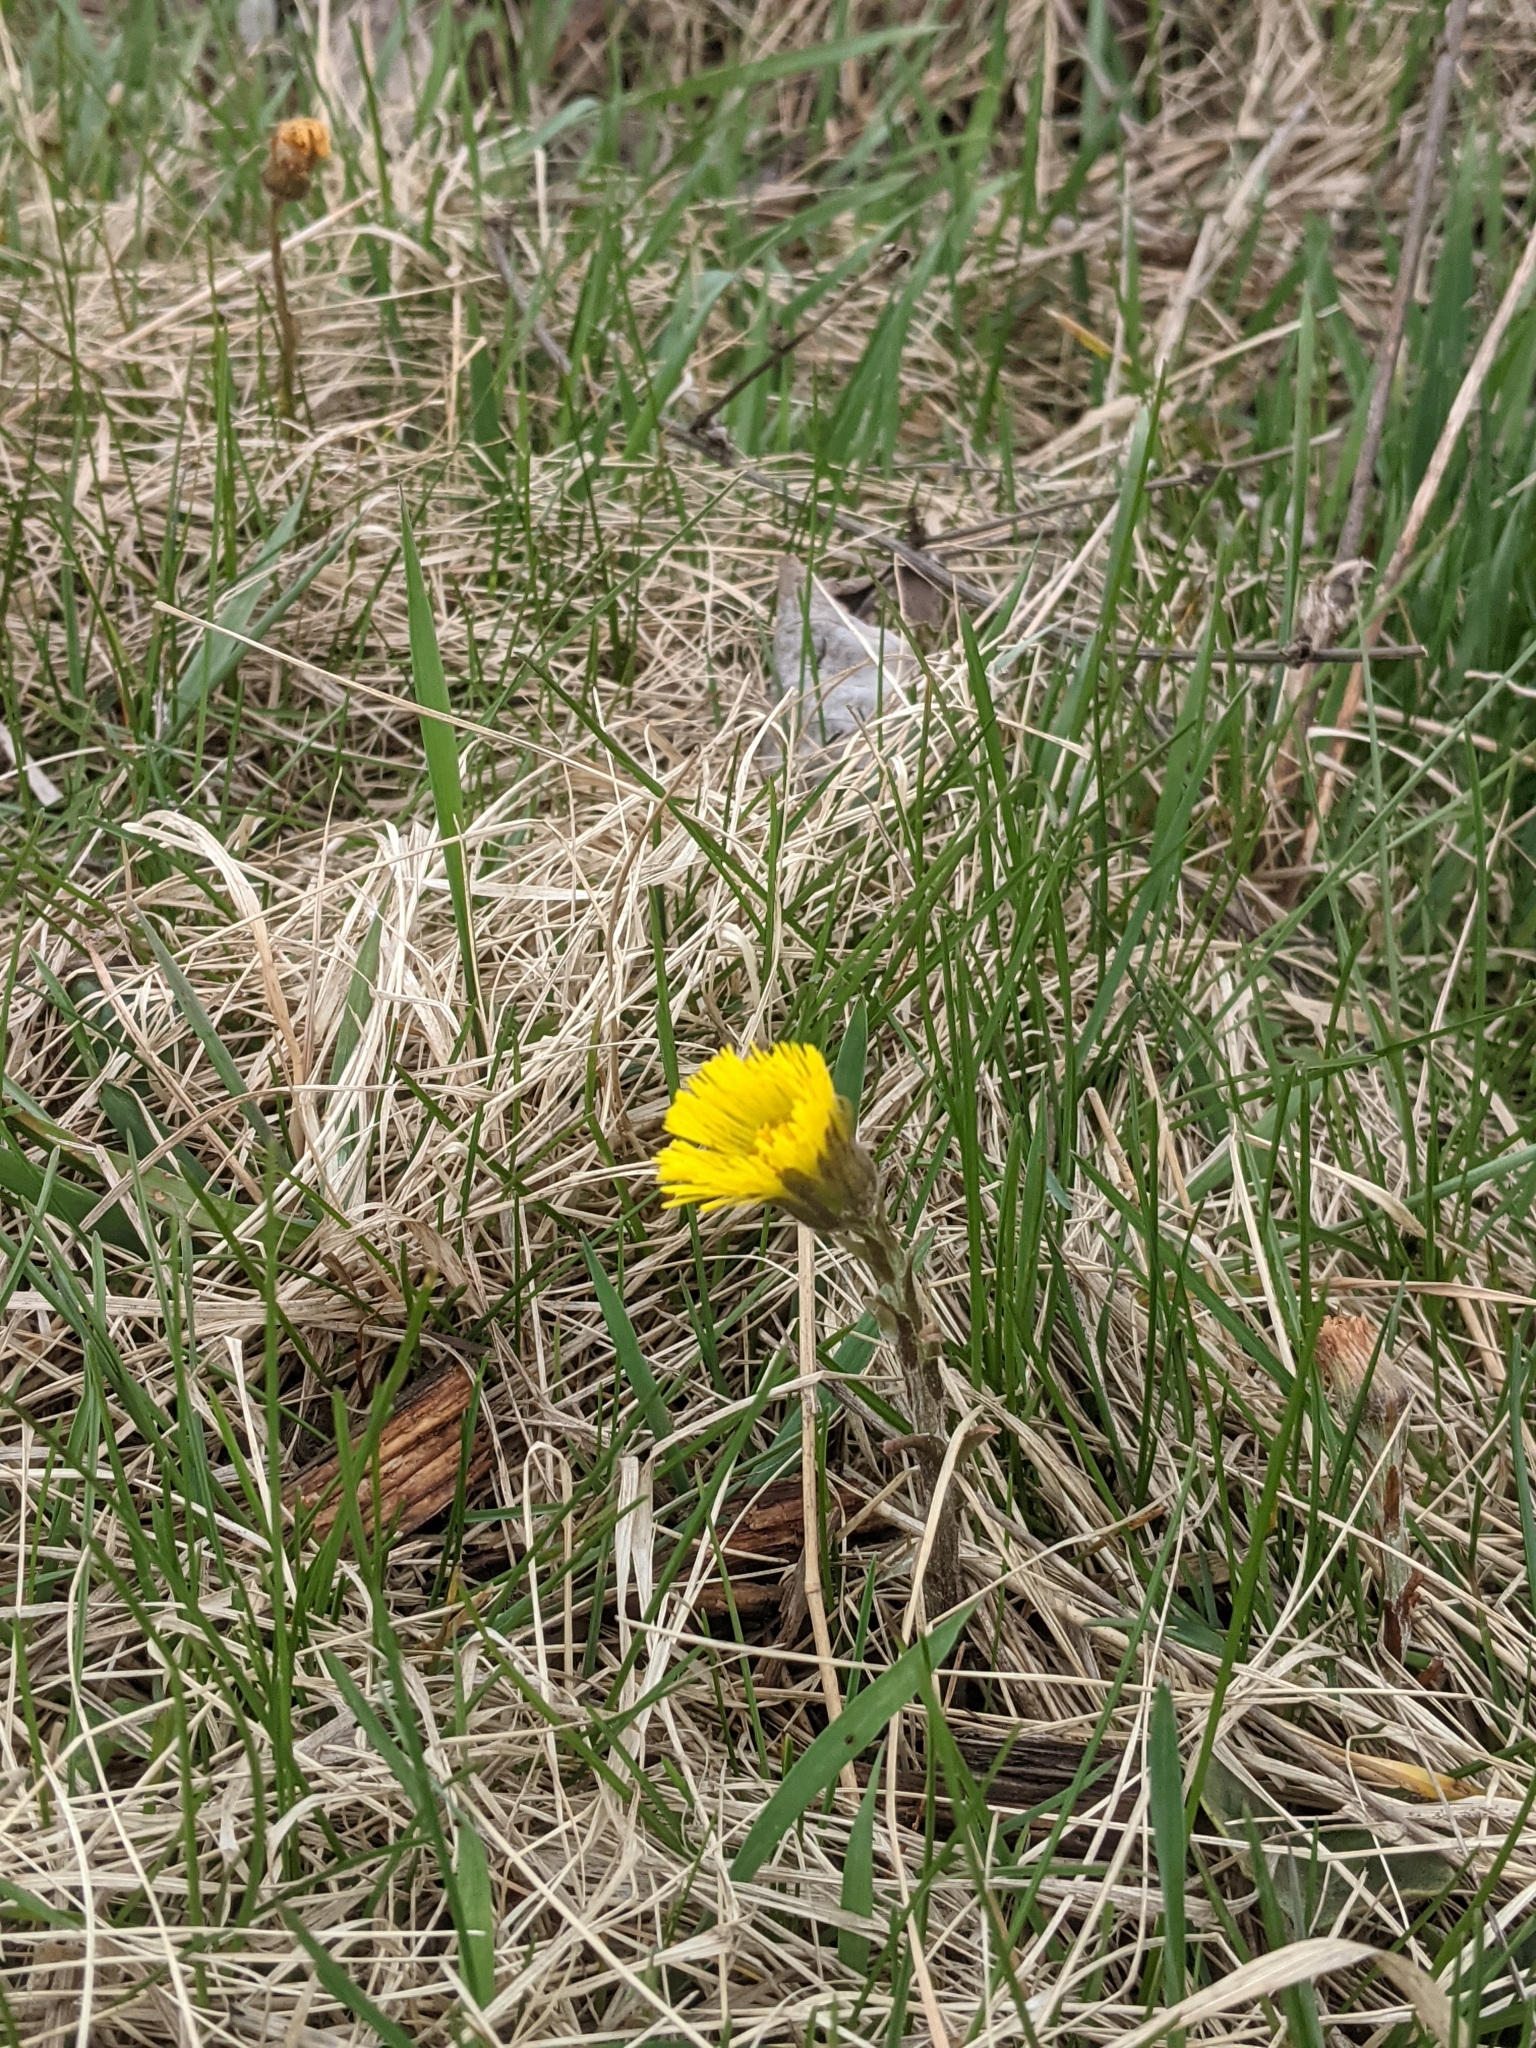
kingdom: Plantae
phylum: Tracheophyta
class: Magnoliopsida
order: Asterales
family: Asteraceae
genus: Tussilago
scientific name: Tussilago farfara
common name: Coltsfoot
